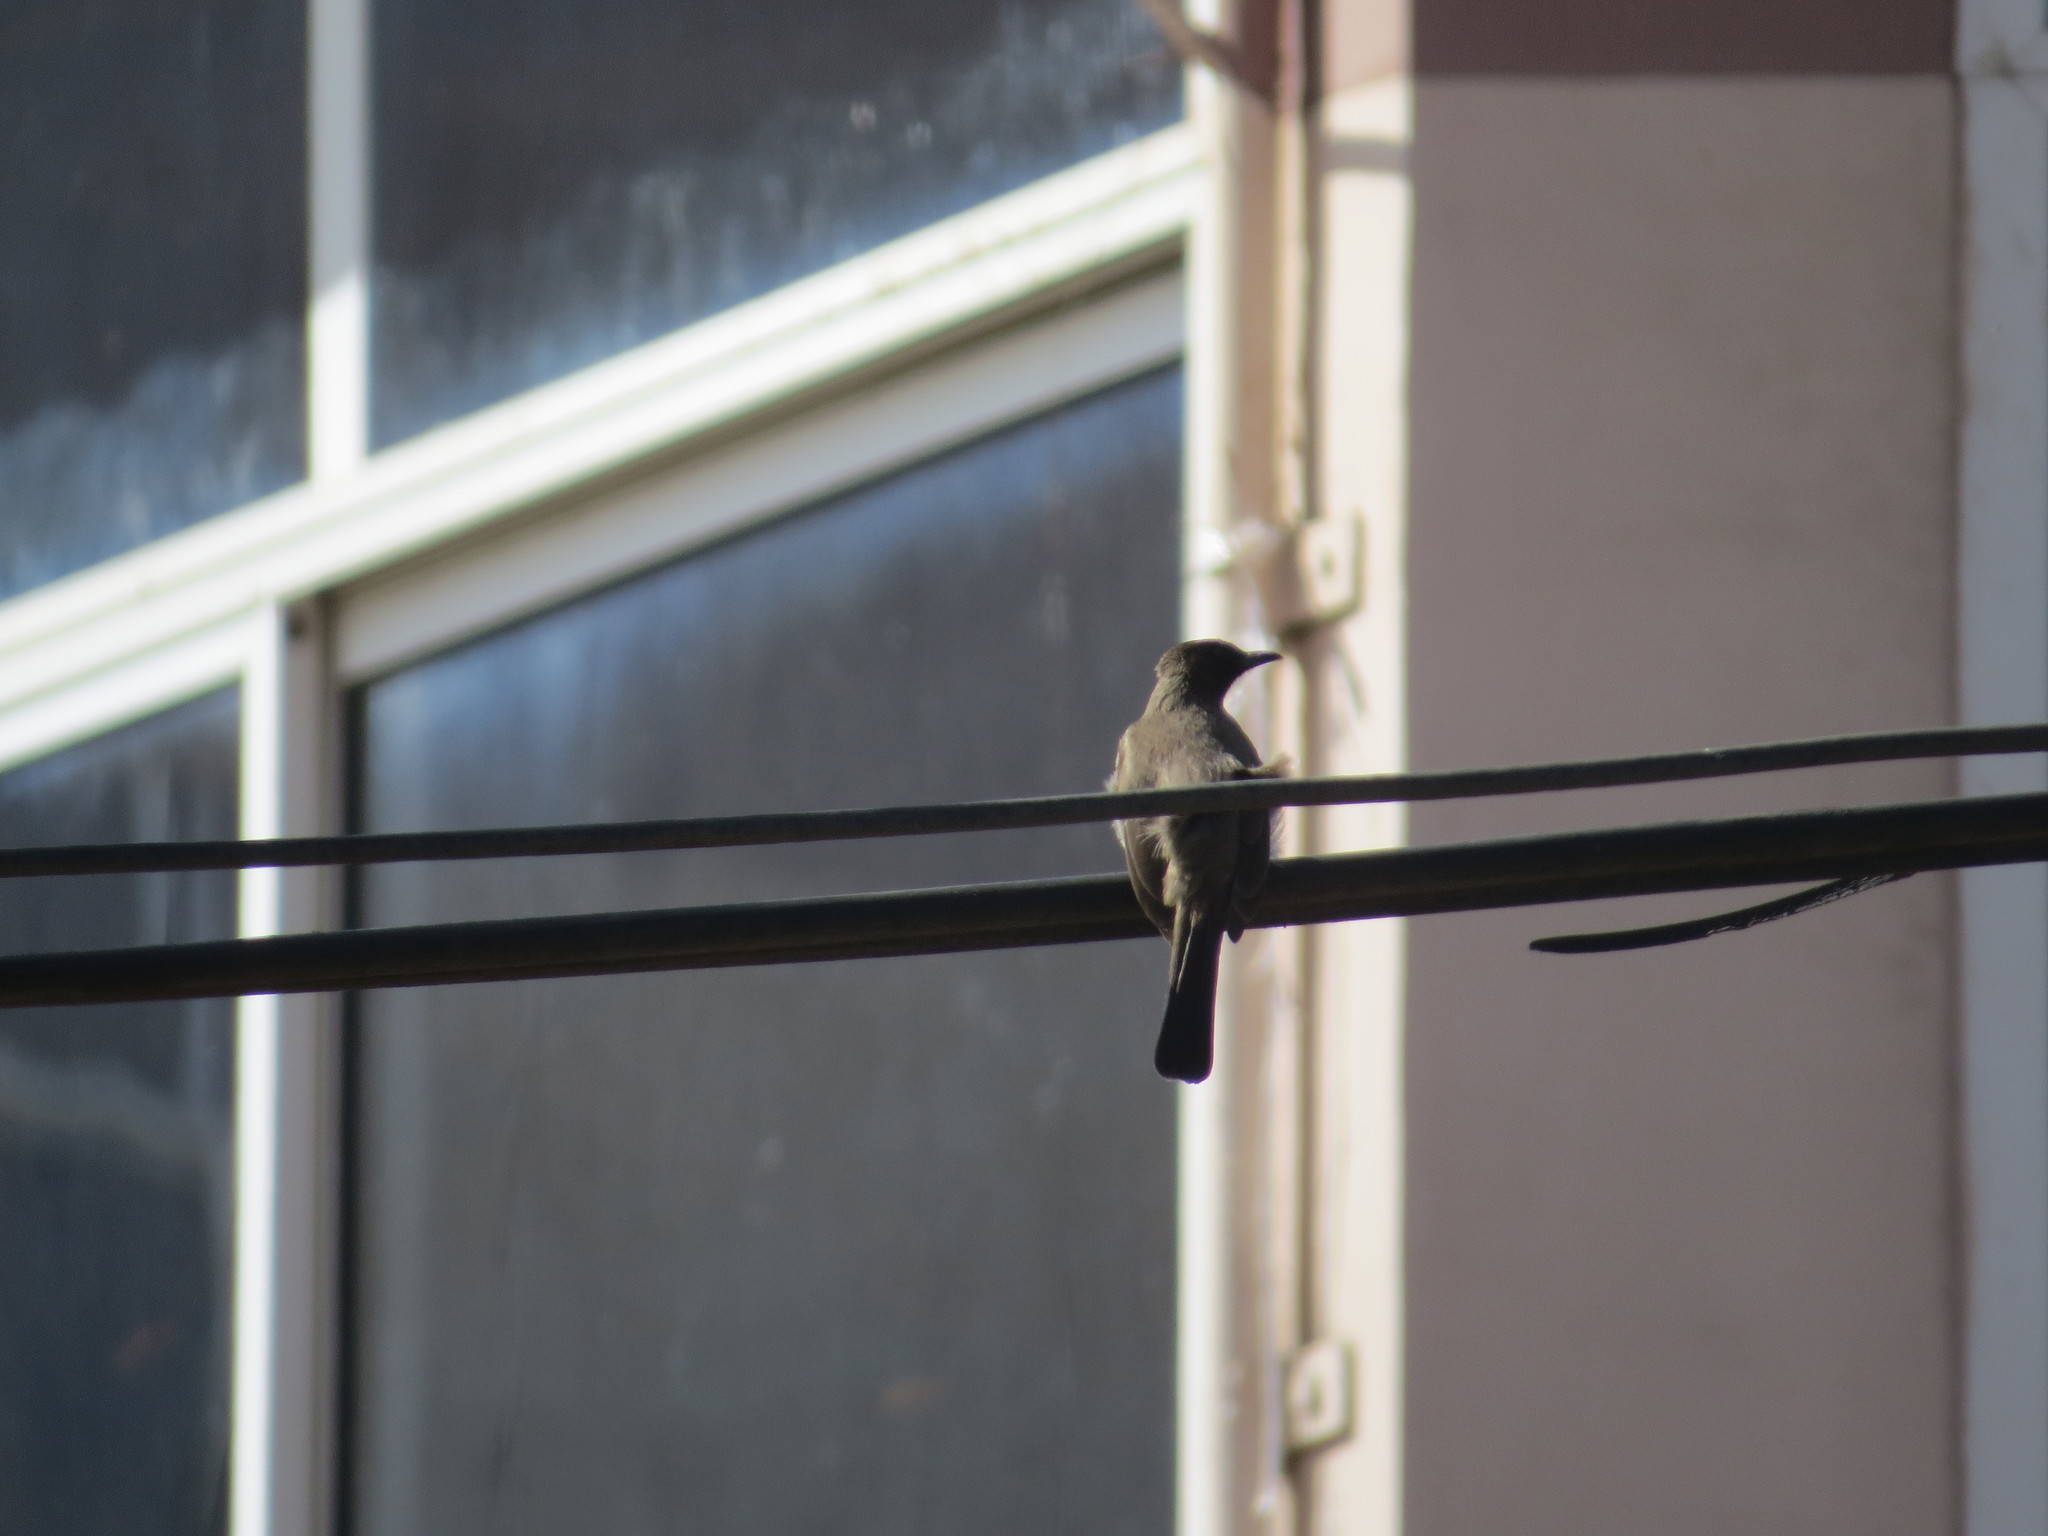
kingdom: Animalia
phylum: Chordata
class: Aves
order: Passeriformes
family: Pycnonotidae
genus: Pycnonotus
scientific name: Pycnonotus barbatus
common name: Common bulbul
